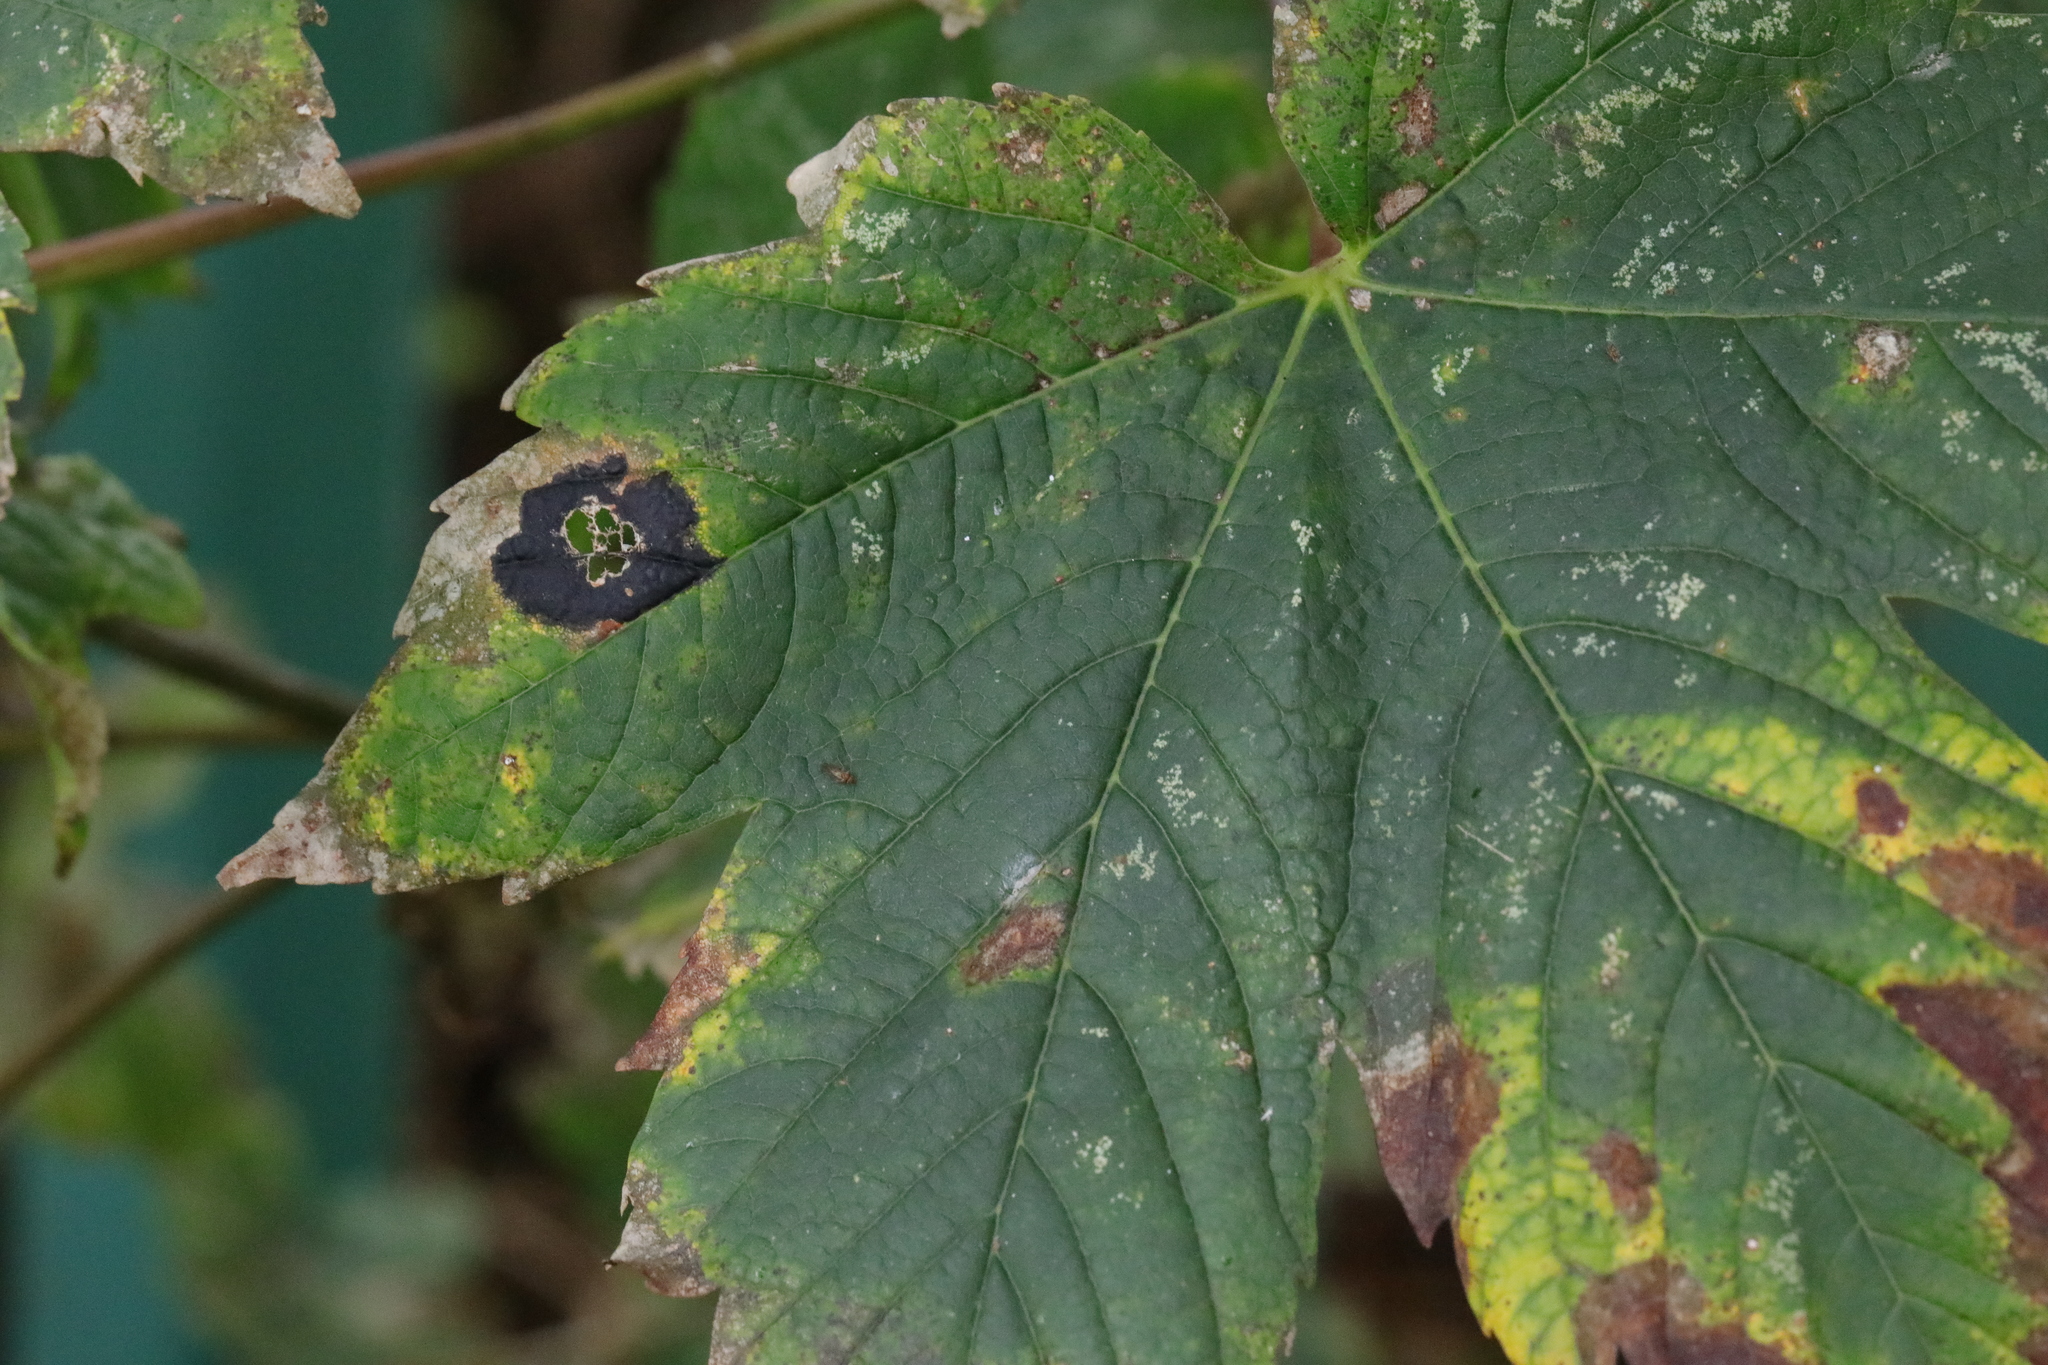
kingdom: Fungi
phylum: Ascomycota
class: Leotiomycetes
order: Rhytismatales
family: Rhytismataceae
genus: Rhytisma
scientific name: Rhytisma acerinum
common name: European tar spot
